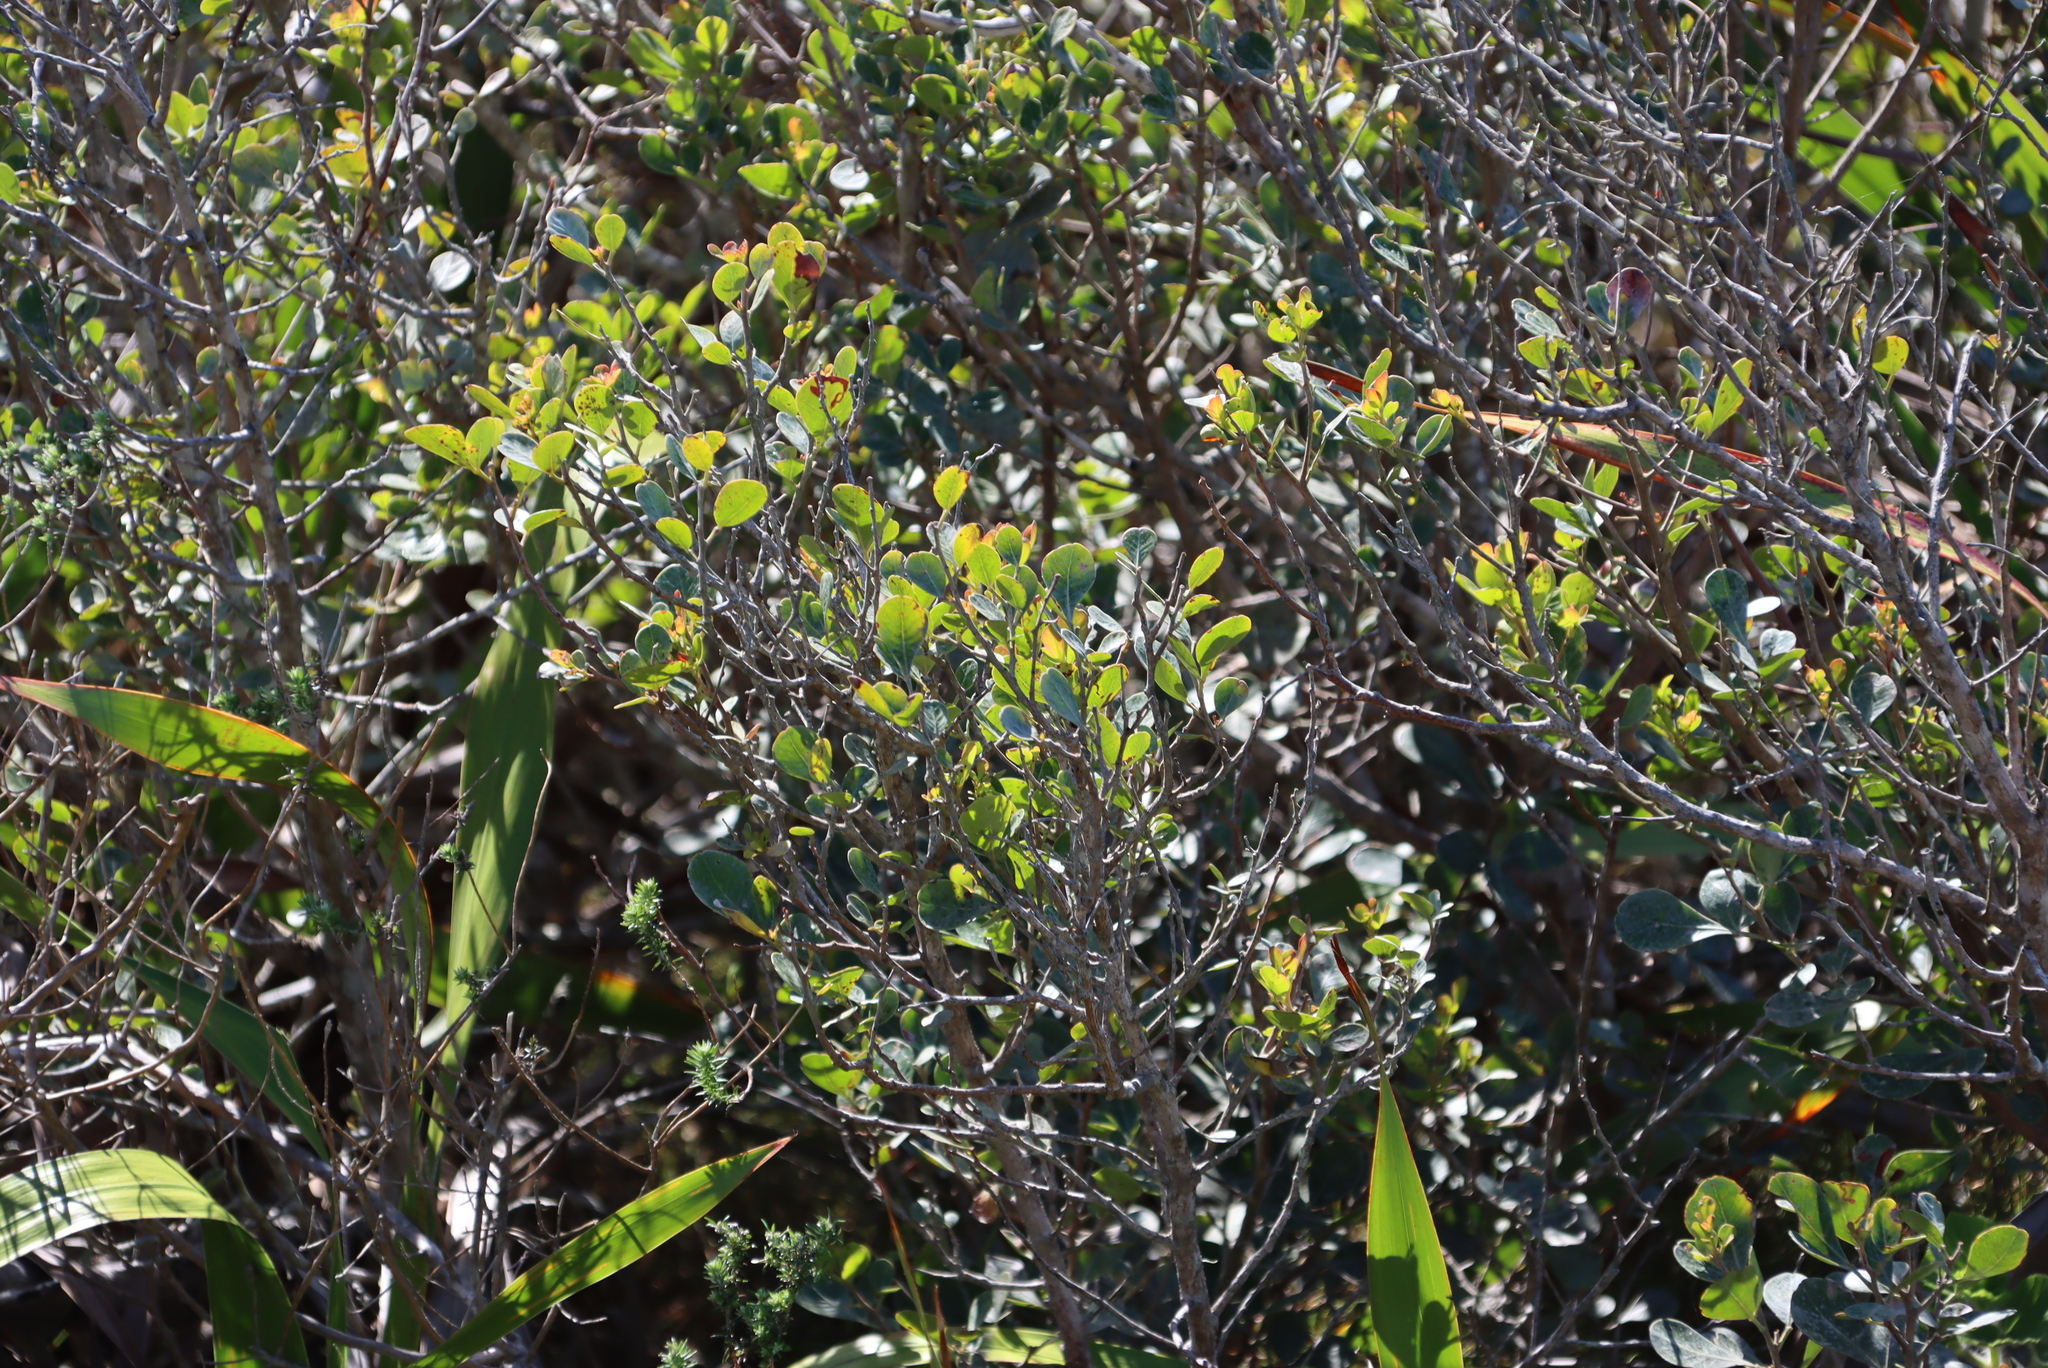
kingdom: Plantae
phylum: Tracheophyta
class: Magnoliopsida
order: Sapindales
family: Anacardiaceae
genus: Searsia
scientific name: Searsia lucida
